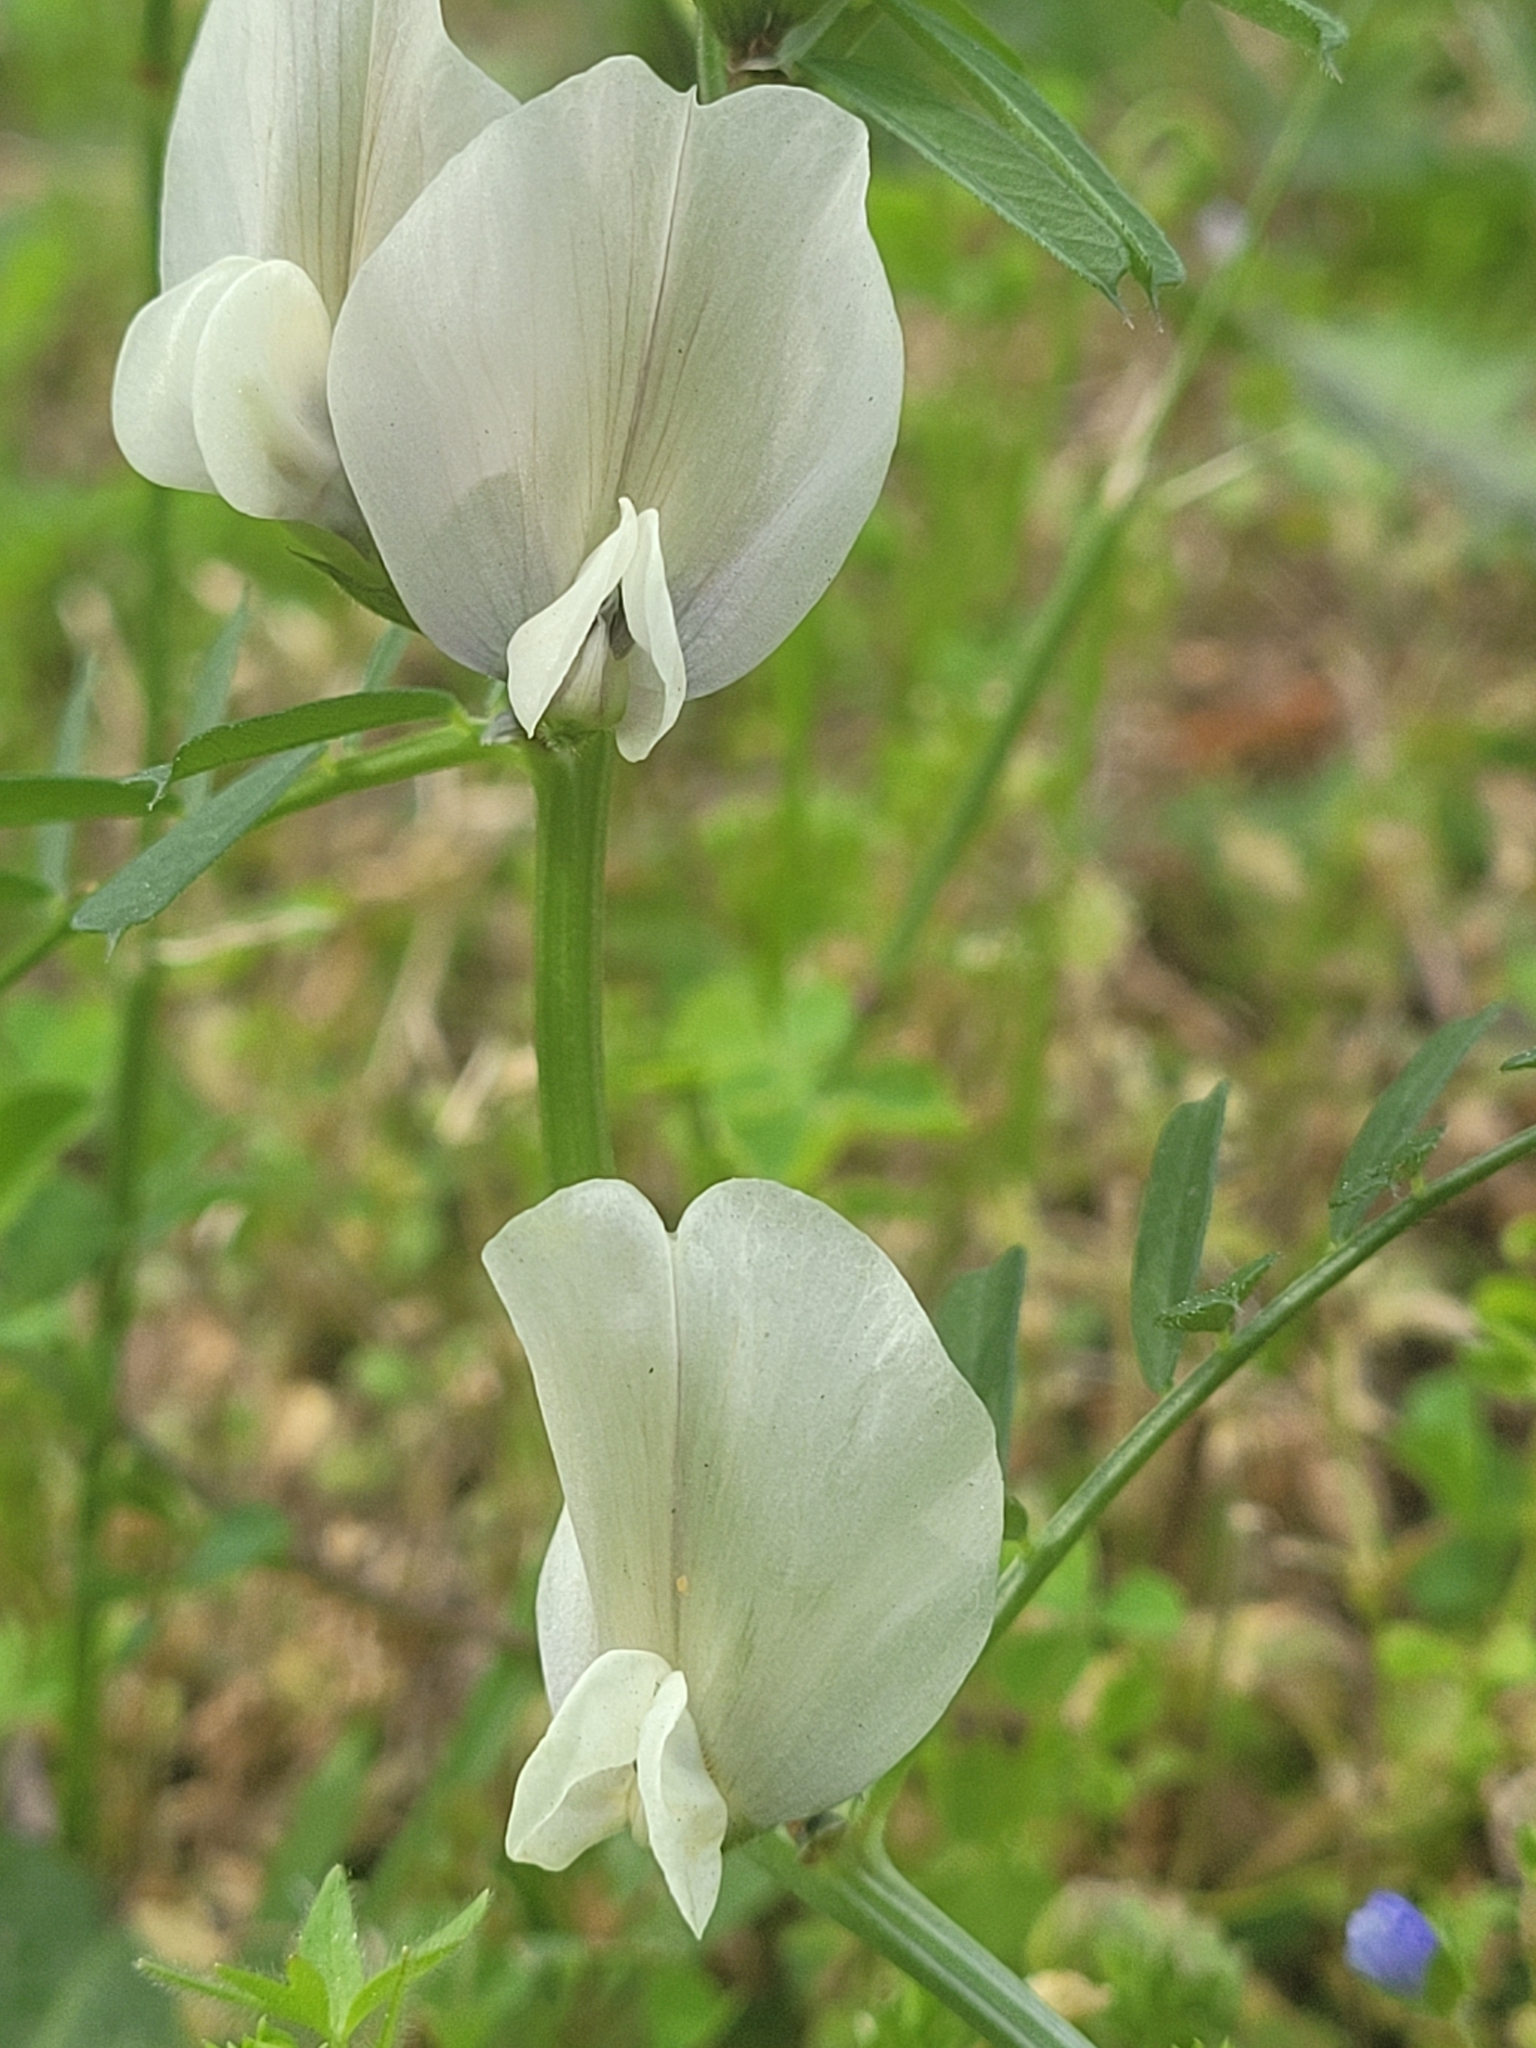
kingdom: Plantae
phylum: Tracheophyta
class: Magnoliopsida
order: Fabales
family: Fabaceae
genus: Vicia
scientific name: Vicia grandiflora
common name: Large yellow vetch
